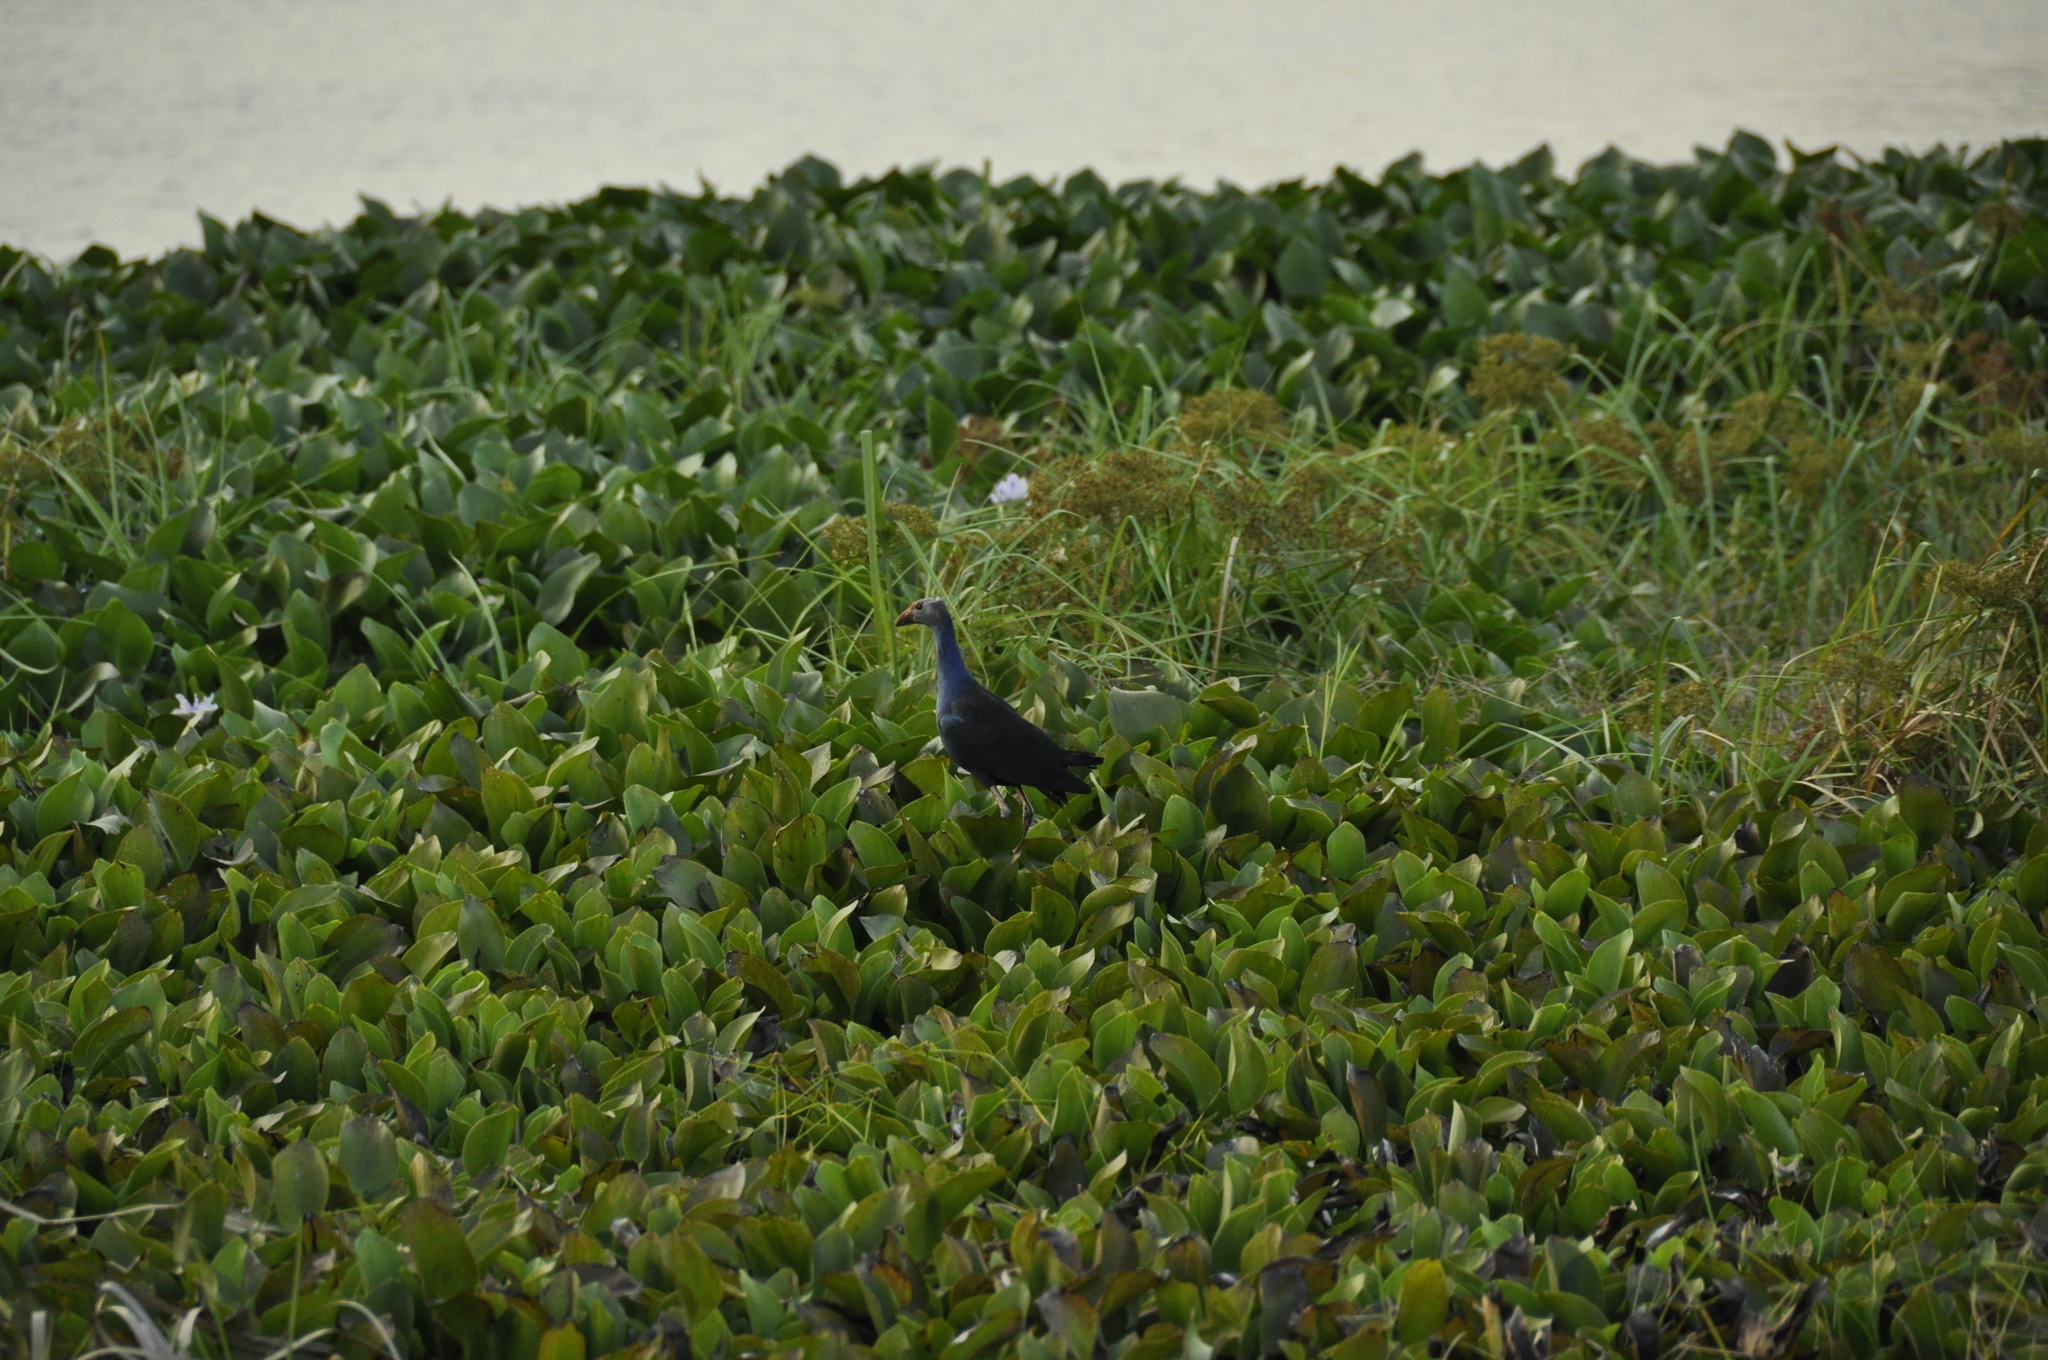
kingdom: Animalia
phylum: Chordata
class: Aves
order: Gruiformes
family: Rallidae
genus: Porphyrio
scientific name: Porphyrio porphyrio
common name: Purple swamphen
